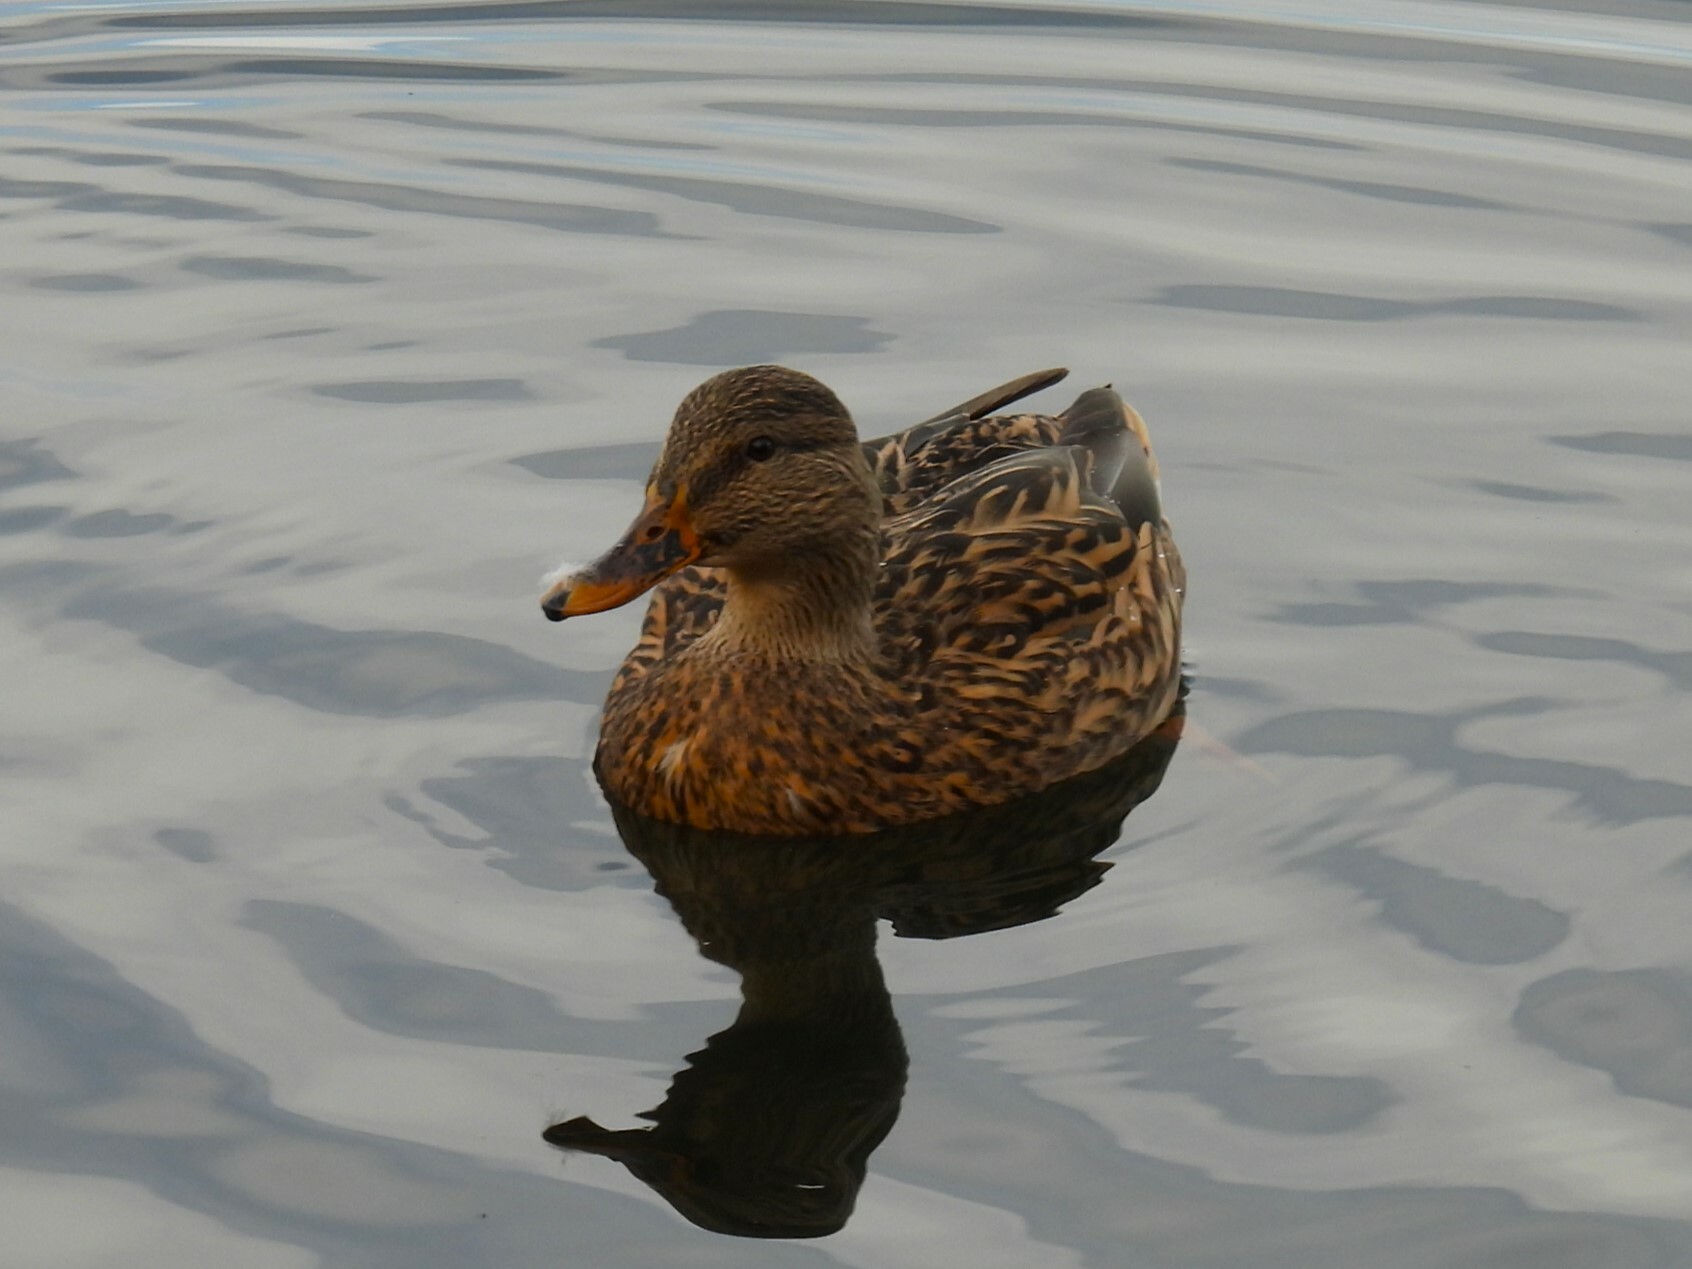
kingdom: Animalia
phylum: Chordata
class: Aves
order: Anseriformes
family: Anatidae
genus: Anas
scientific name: Anas platyrhynchos
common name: Mallard
